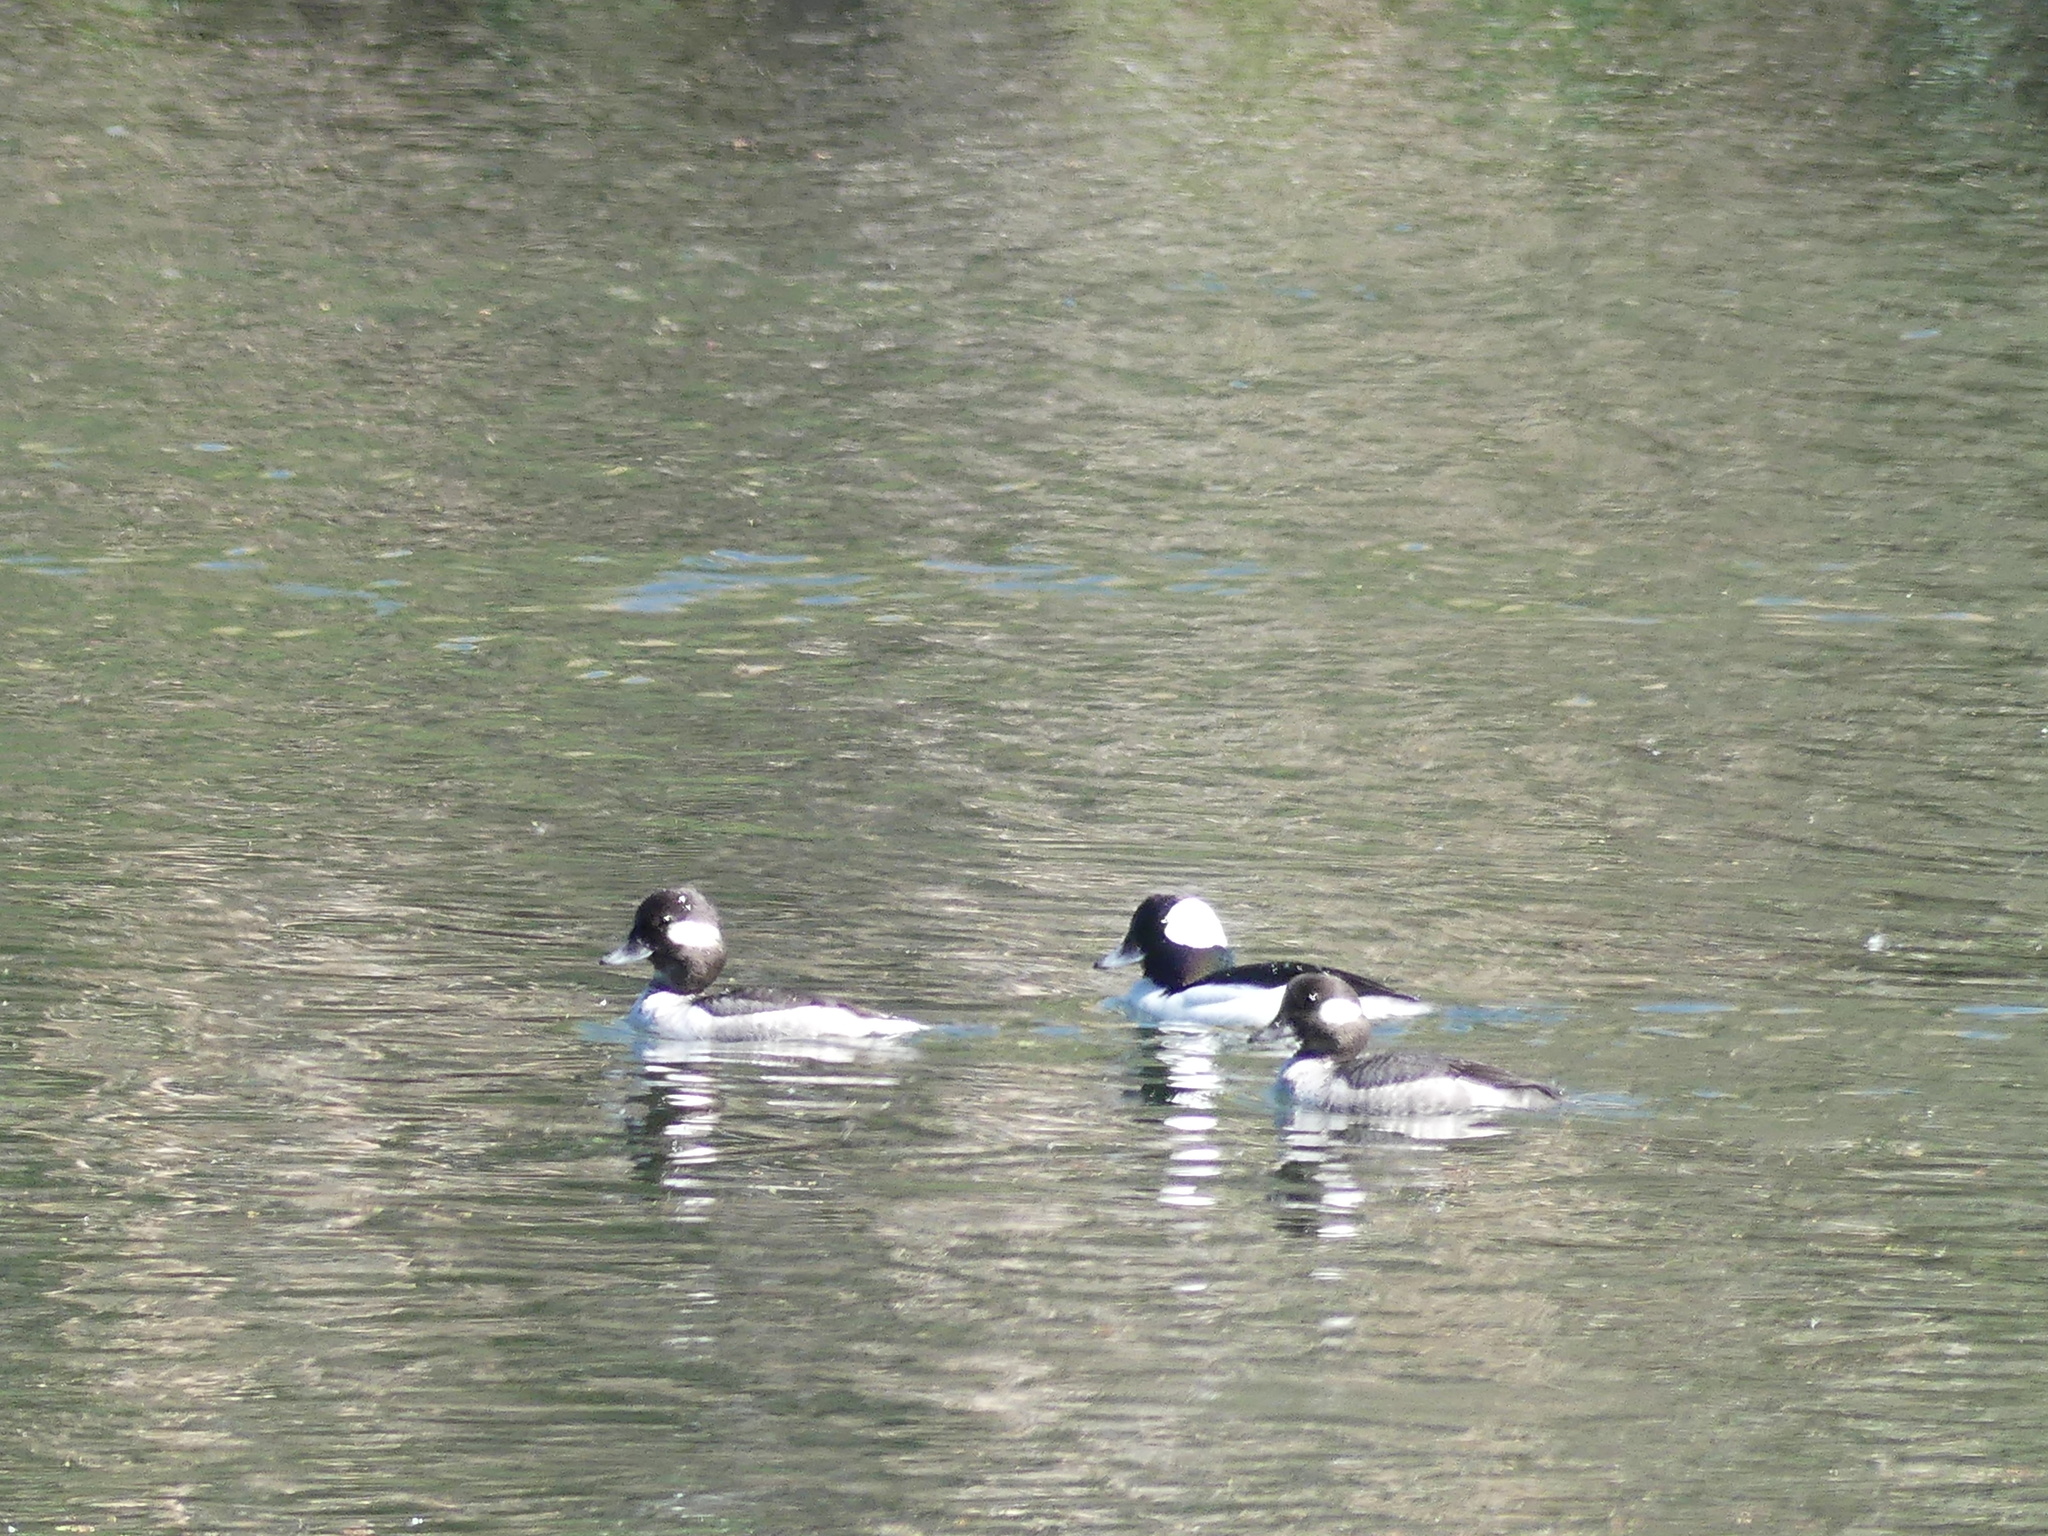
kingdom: Animalia
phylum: Chordata
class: Aves
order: Anseriformes
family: Anatidae
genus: Bucephala
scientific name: Bucephala albeola
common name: Bufflehead
